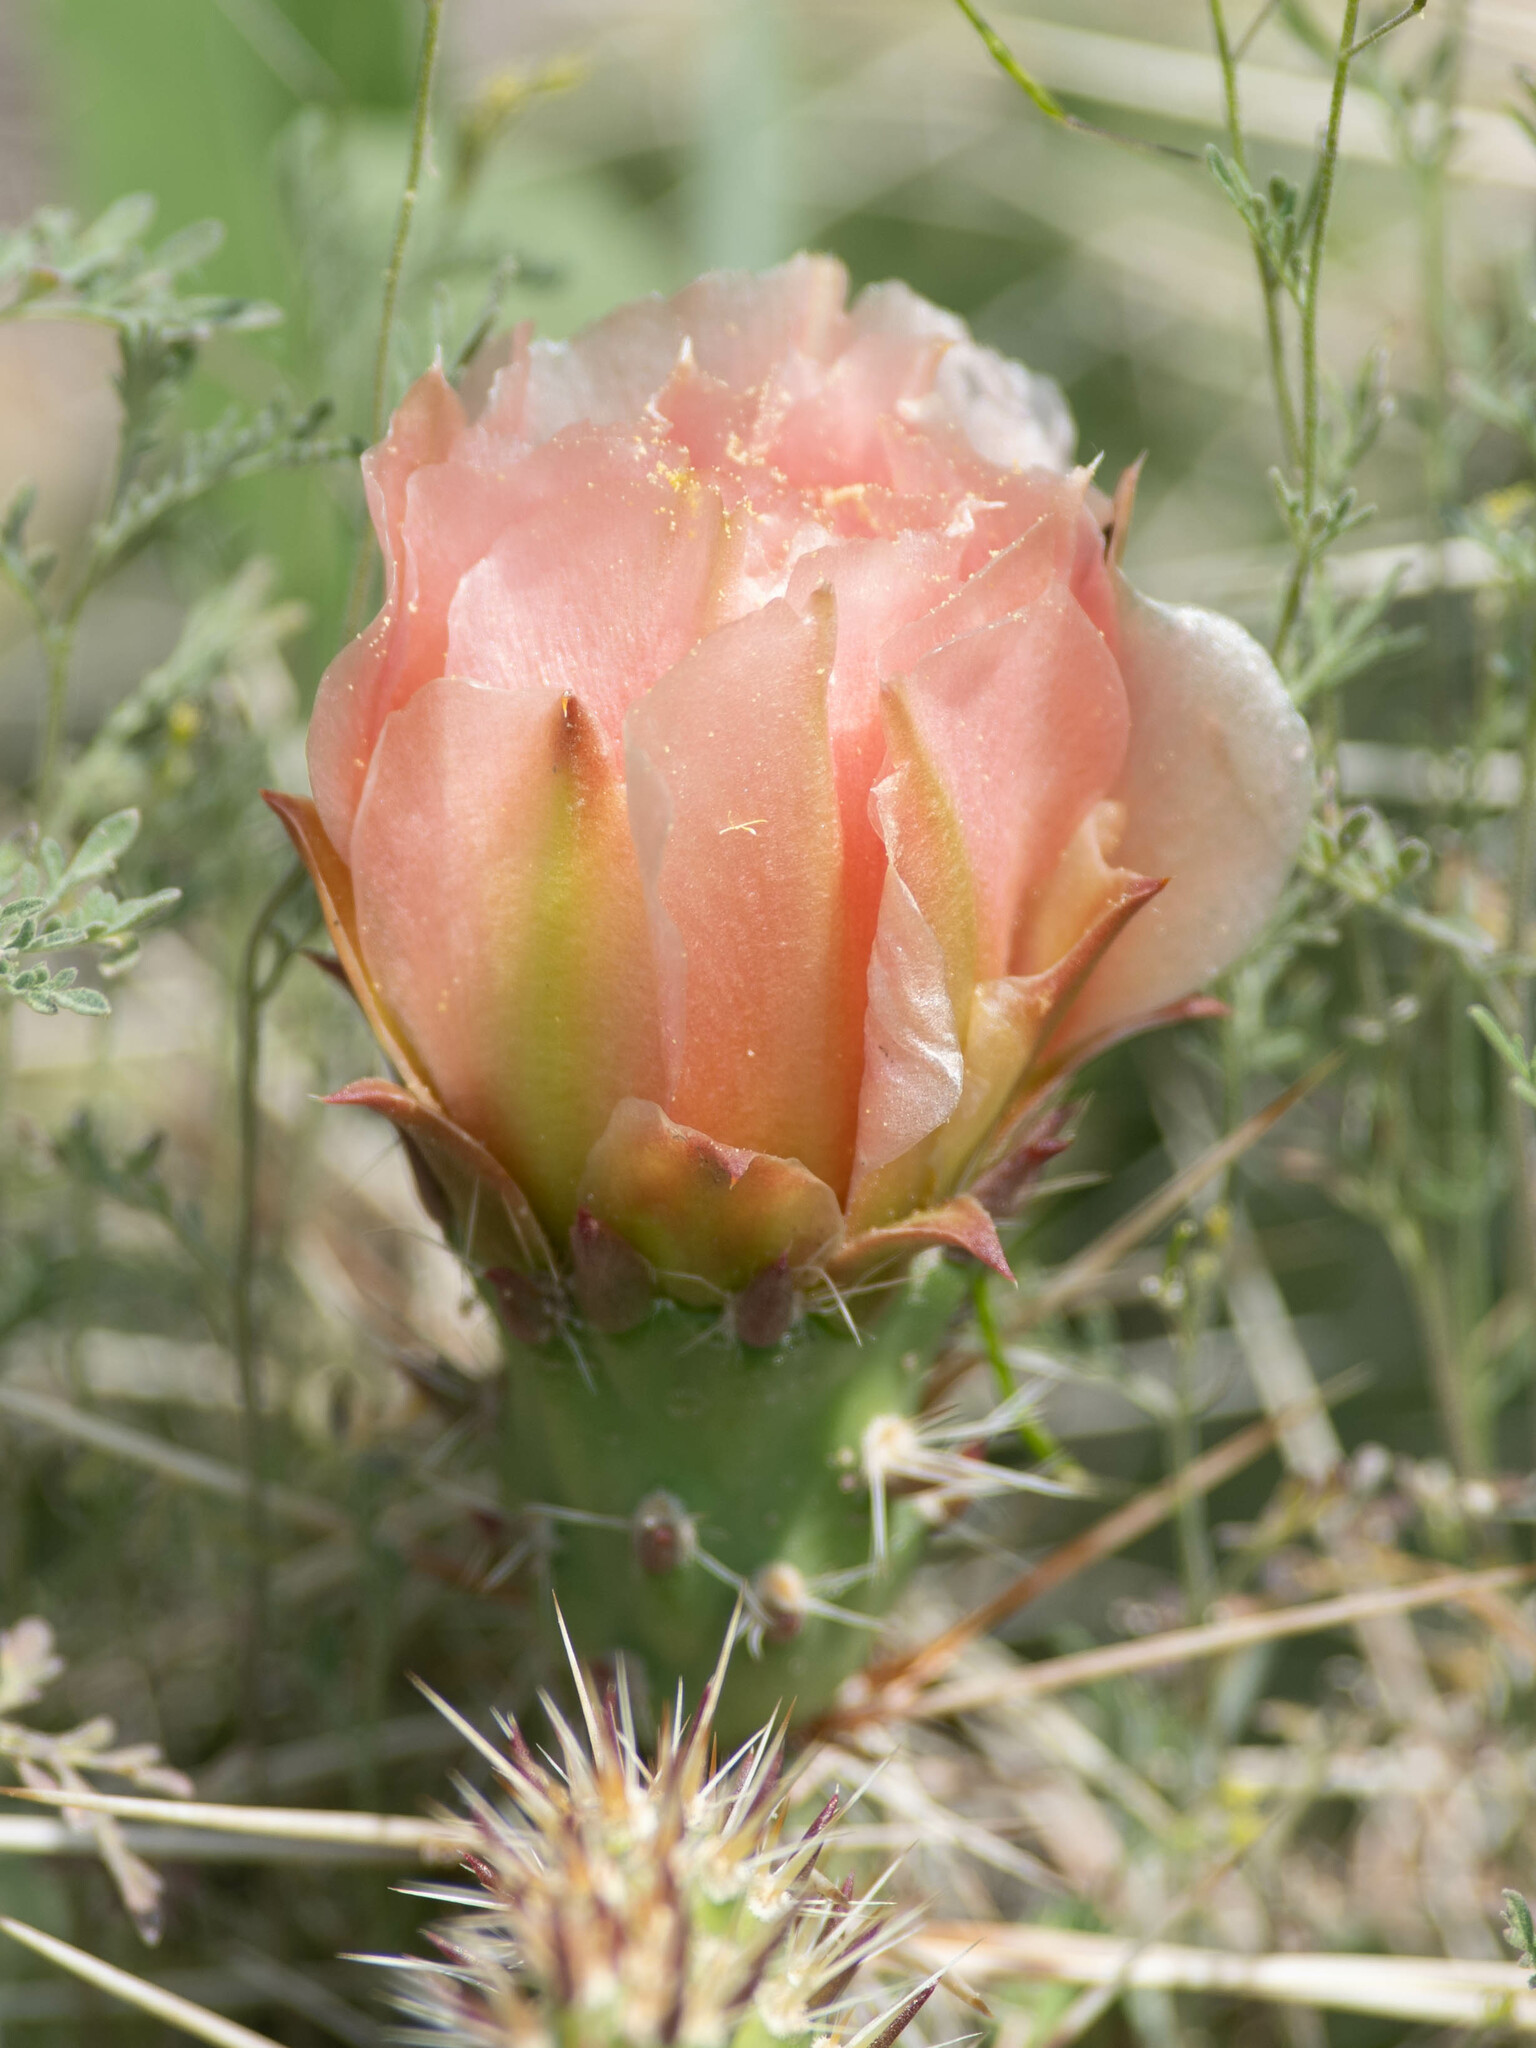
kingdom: Plantae
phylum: Tracheophyta
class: Magnoliopsida
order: Caryophyllales
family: Cactaceae
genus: Opuntia
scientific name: Opuntia polyacantha
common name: Plains prickly-pear
